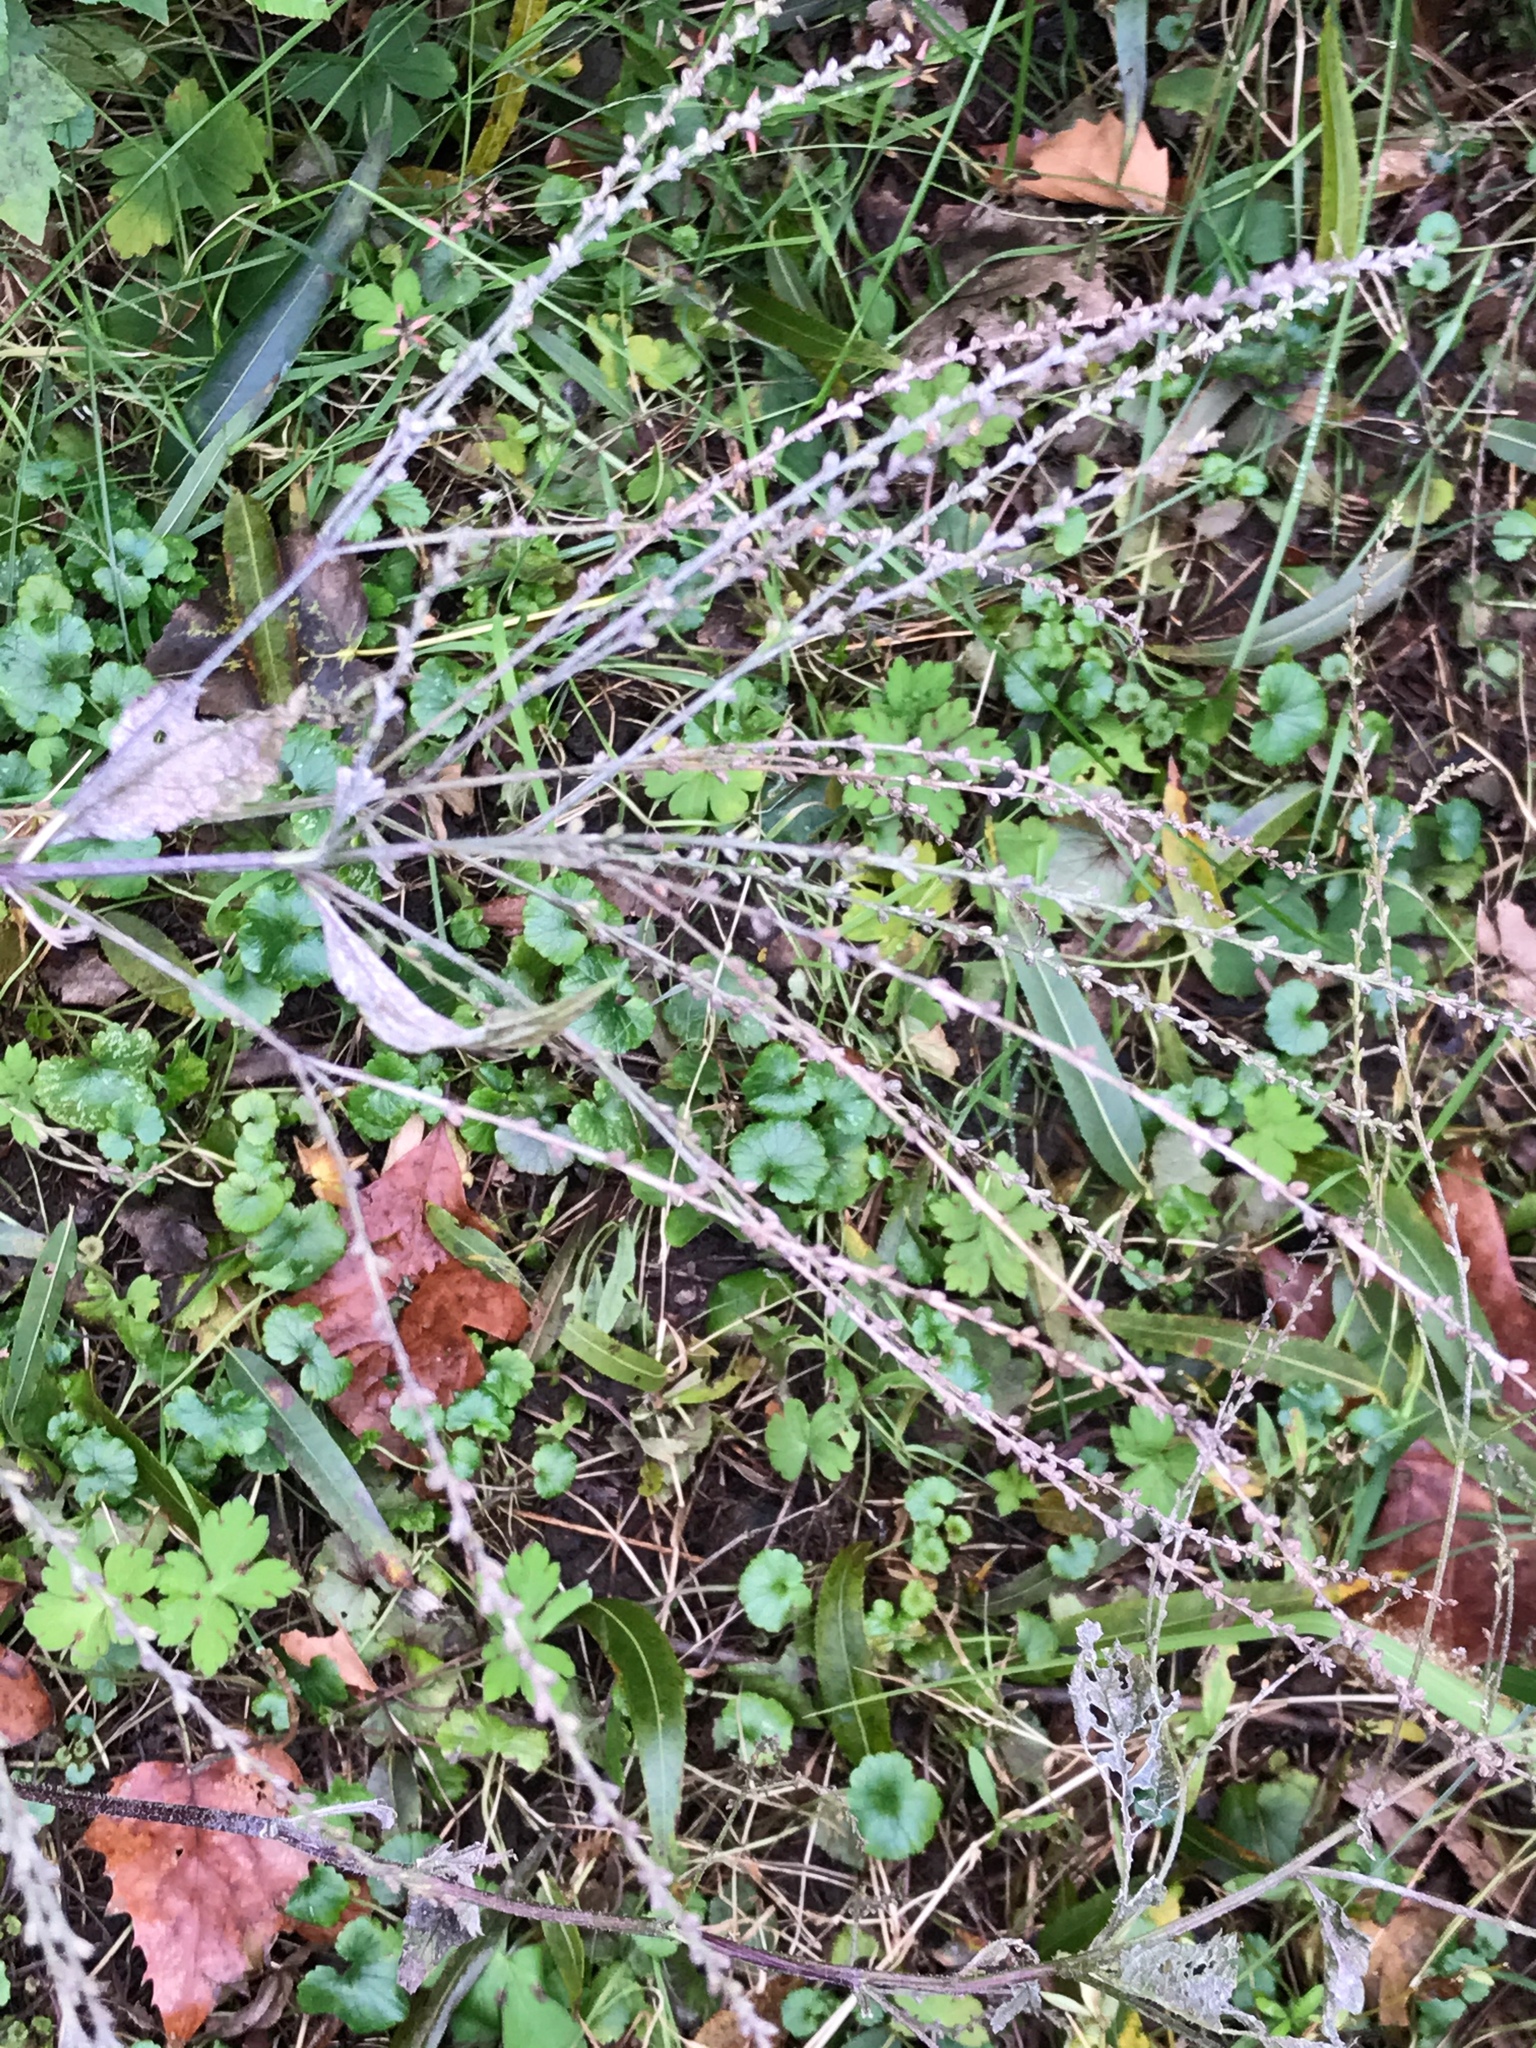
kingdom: Plantae
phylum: Tracheophyta
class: Magnoliopsida
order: Lamiales
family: Verbenaceae
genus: Verbena
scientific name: Verbena urticifolia
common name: Nettle-leaved vervain
